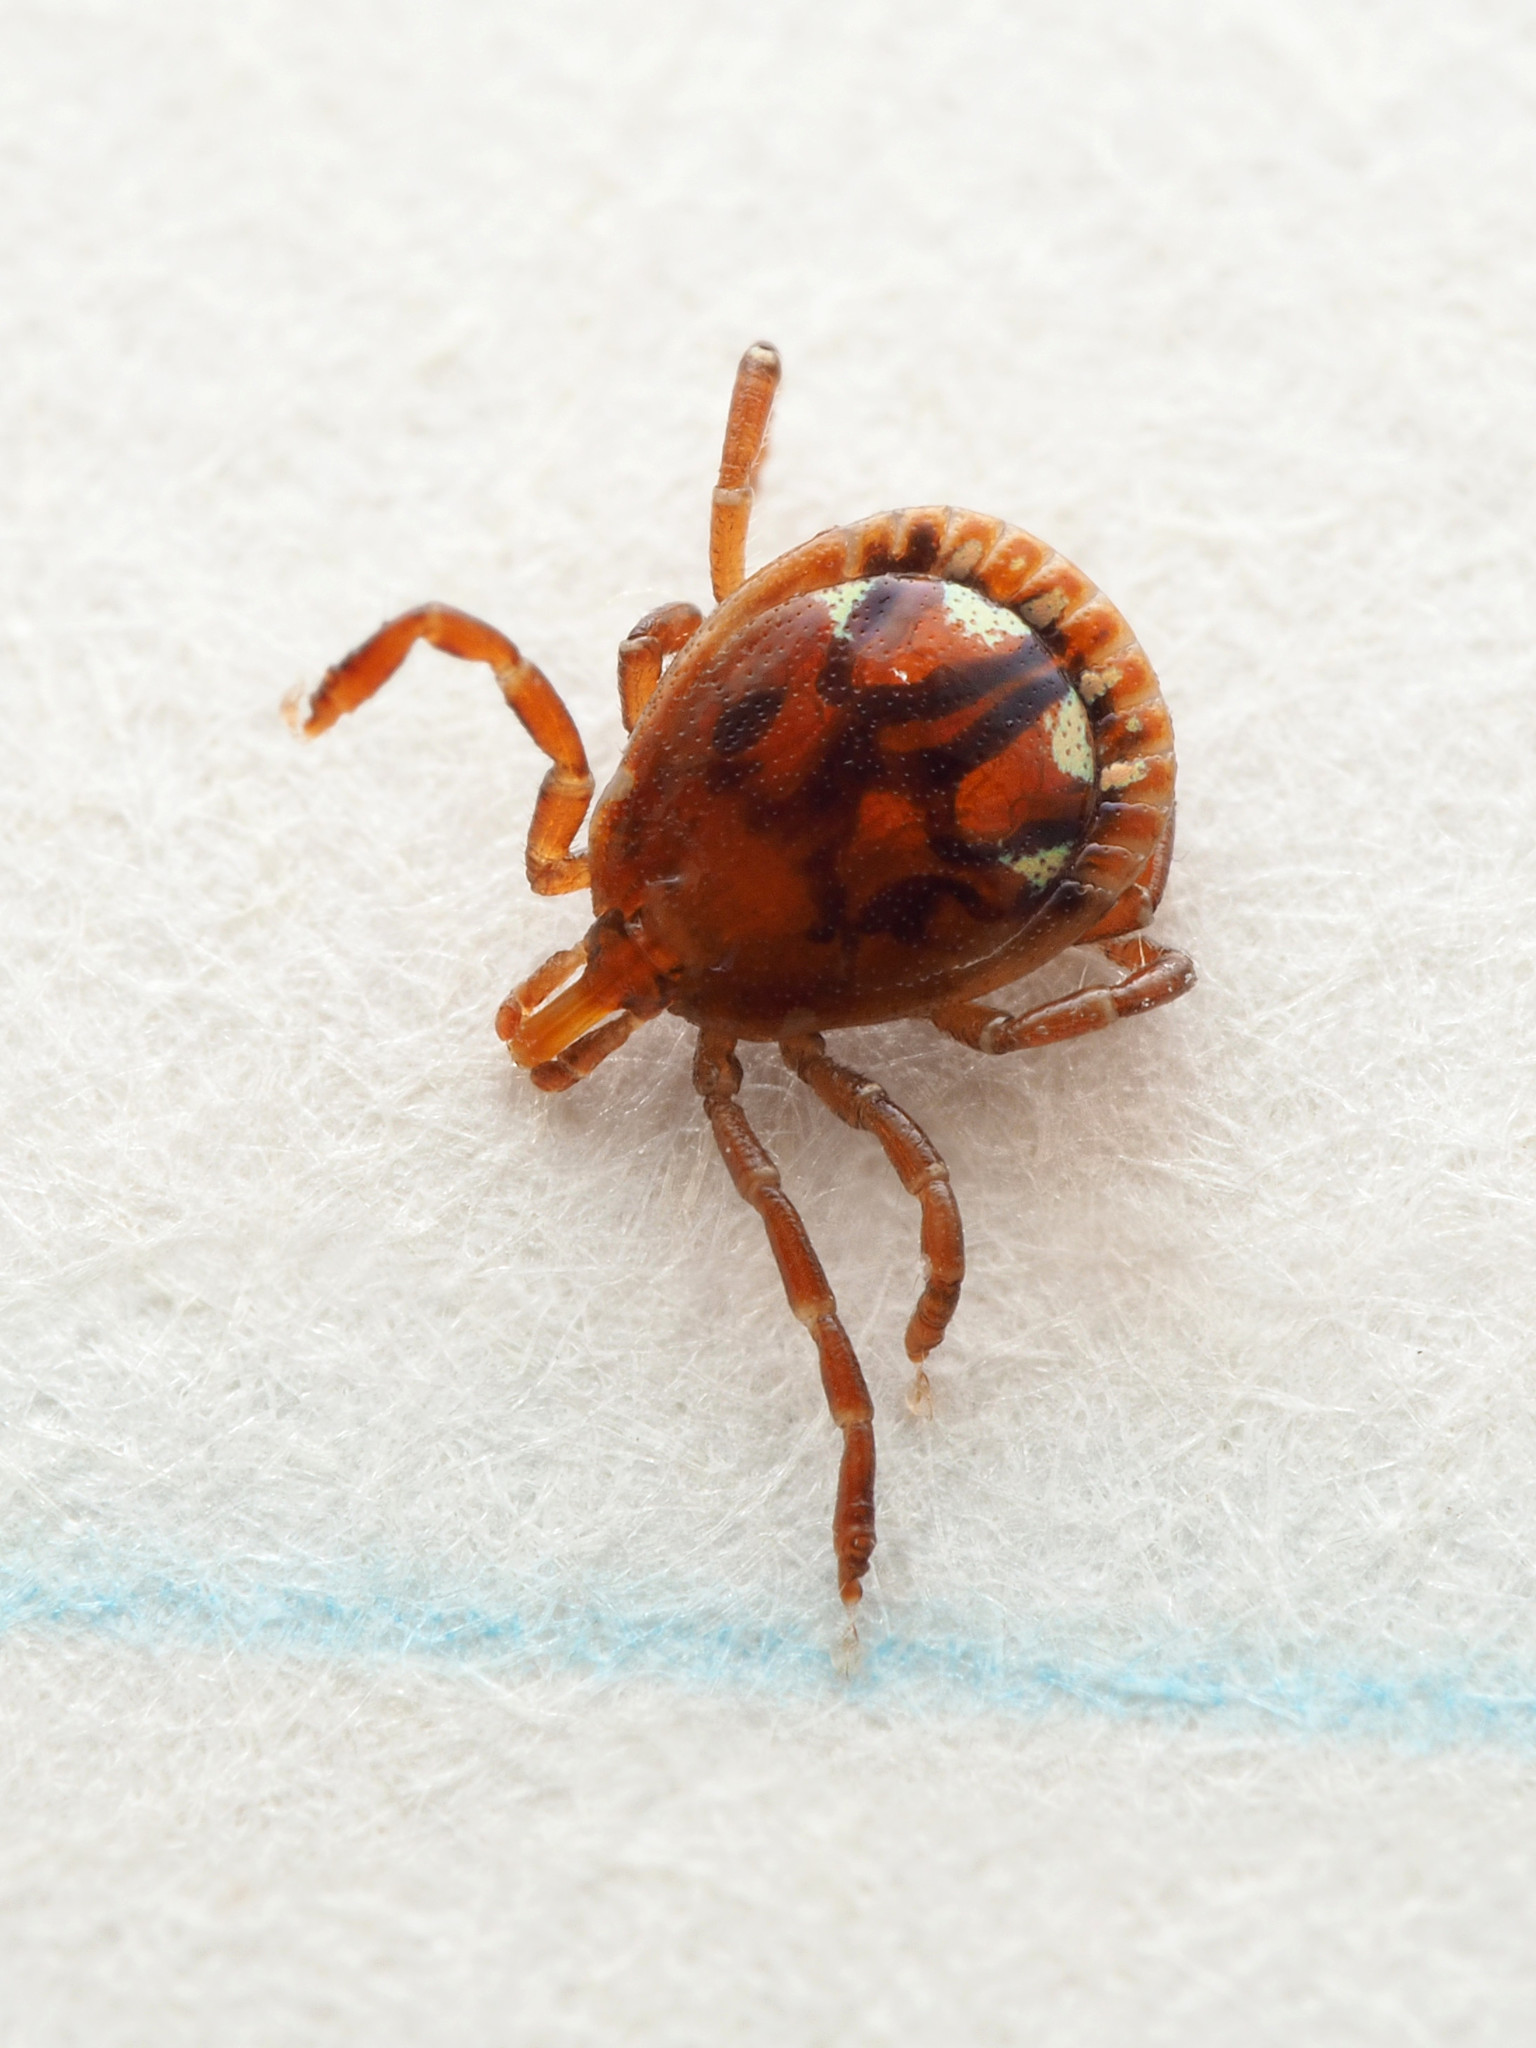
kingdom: Animalia
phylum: Arthropoda
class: Arachnida
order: Ixodida
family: Ixodidae
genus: Amblyomma
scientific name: Amblyomma americanum
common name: Lone star tick
